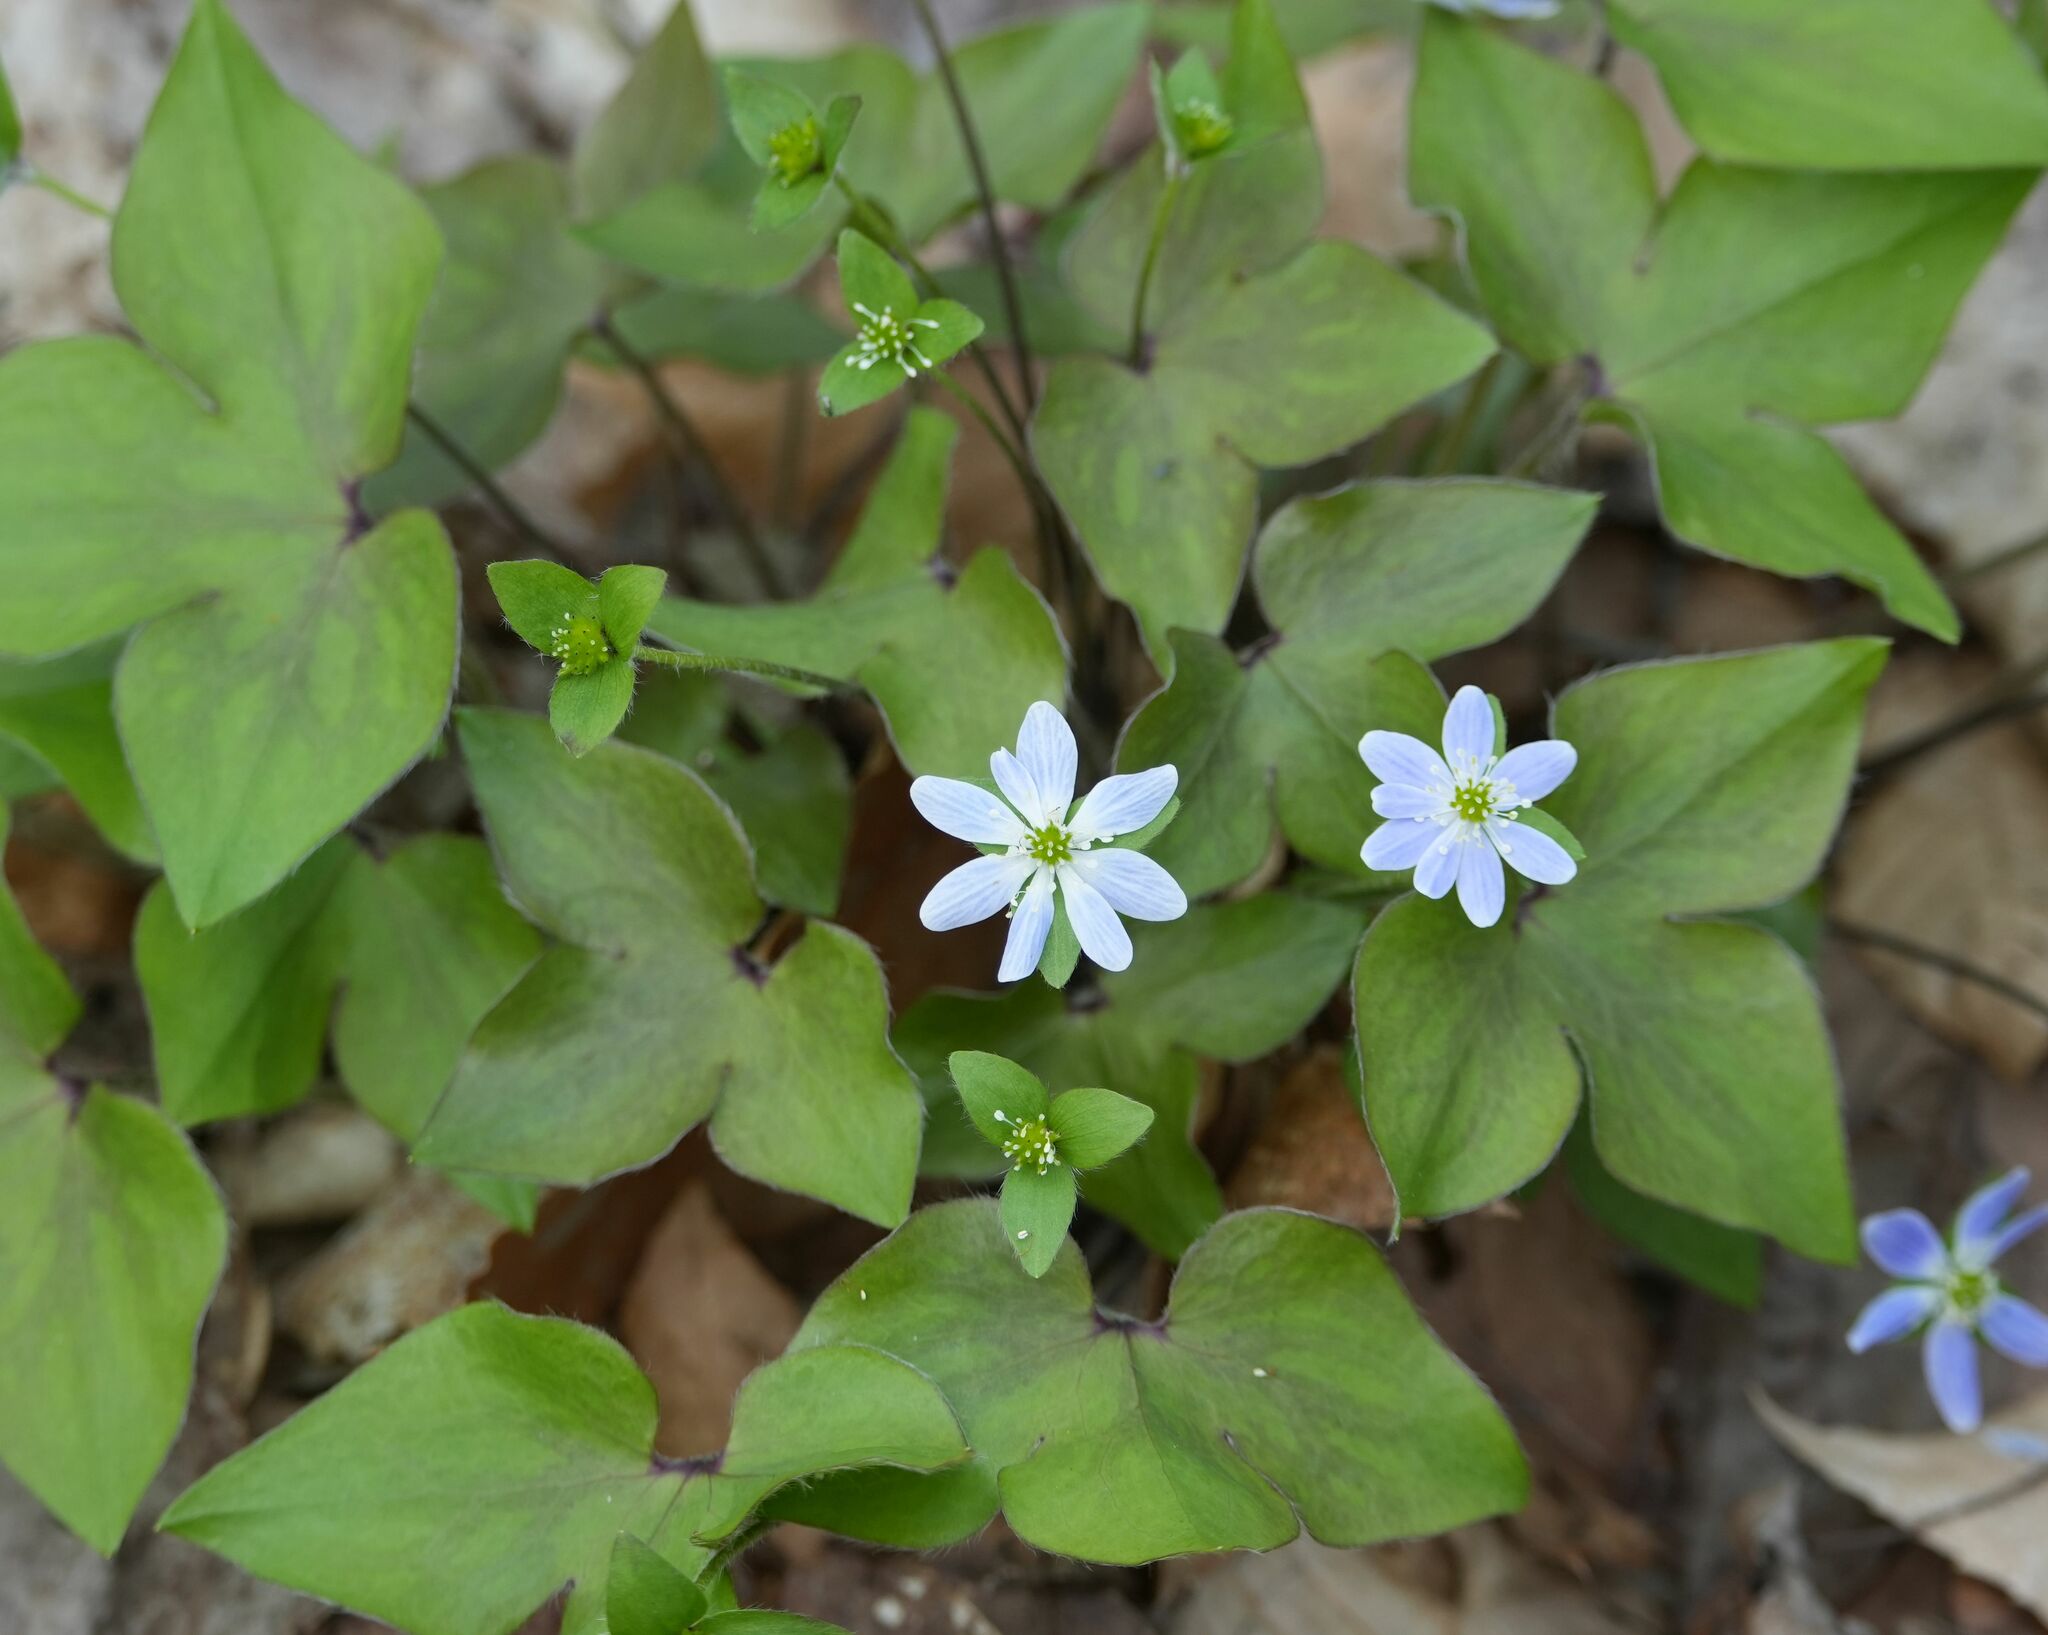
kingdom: Plantae
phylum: Tracheophyta
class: Magnoliopsida
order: Ranunculales
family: Ranunculaceae
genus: Hepatica
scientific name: Hepatica acutiloba
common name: Sharp-lobed hepatica
